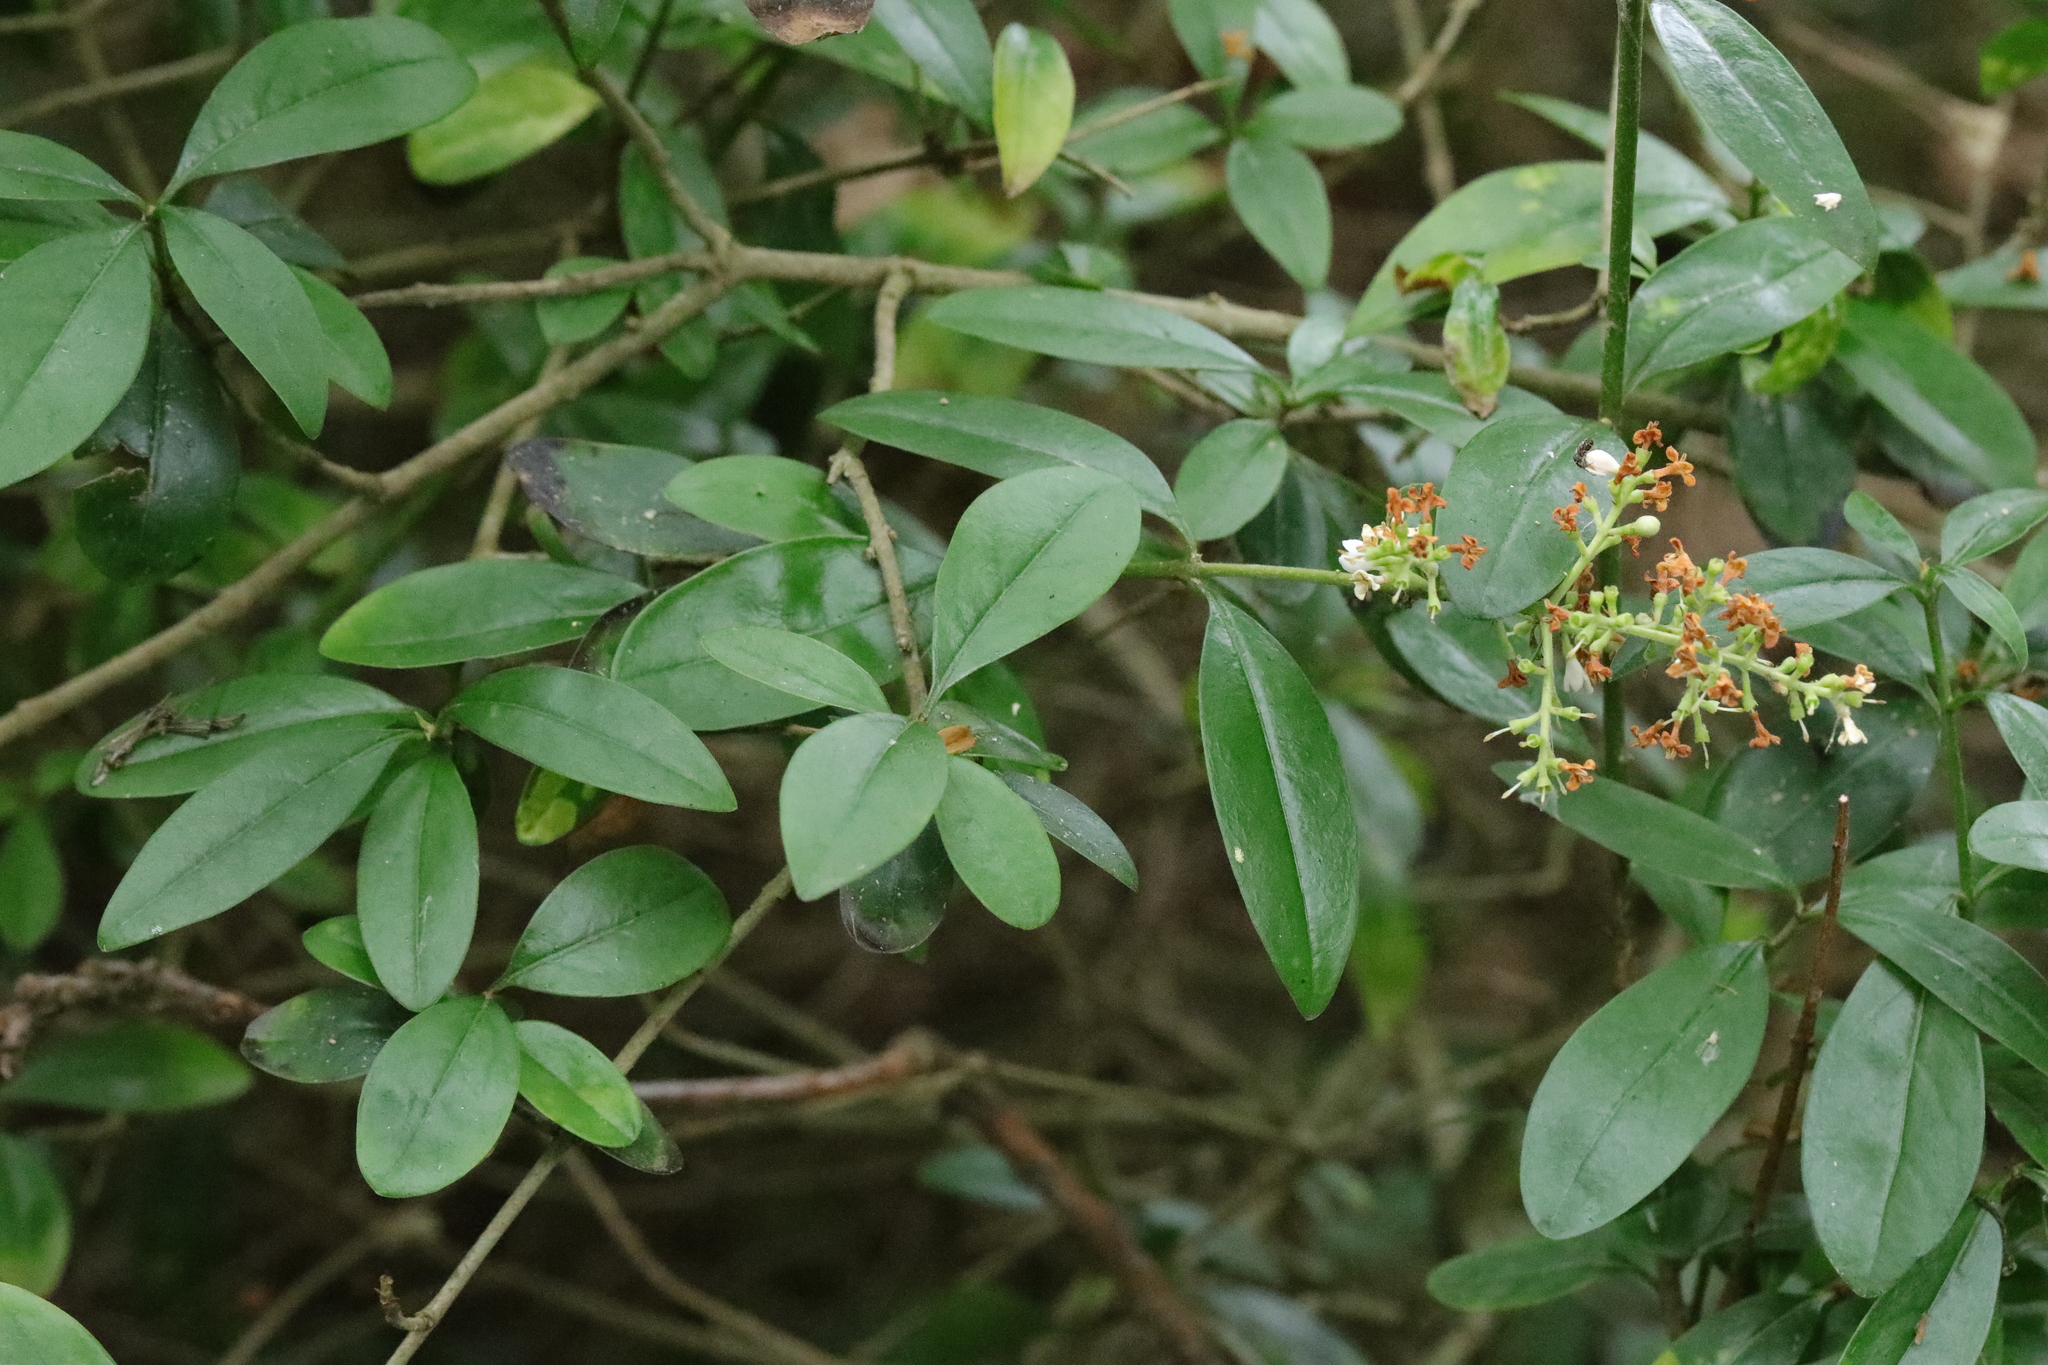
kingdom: Plantae
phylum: Tracheophyta
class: Magnoliopsida
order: Lamiales
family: Oleaceae
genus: Ligustrum
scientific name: Ligustrum vulgare
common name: Wild privet
